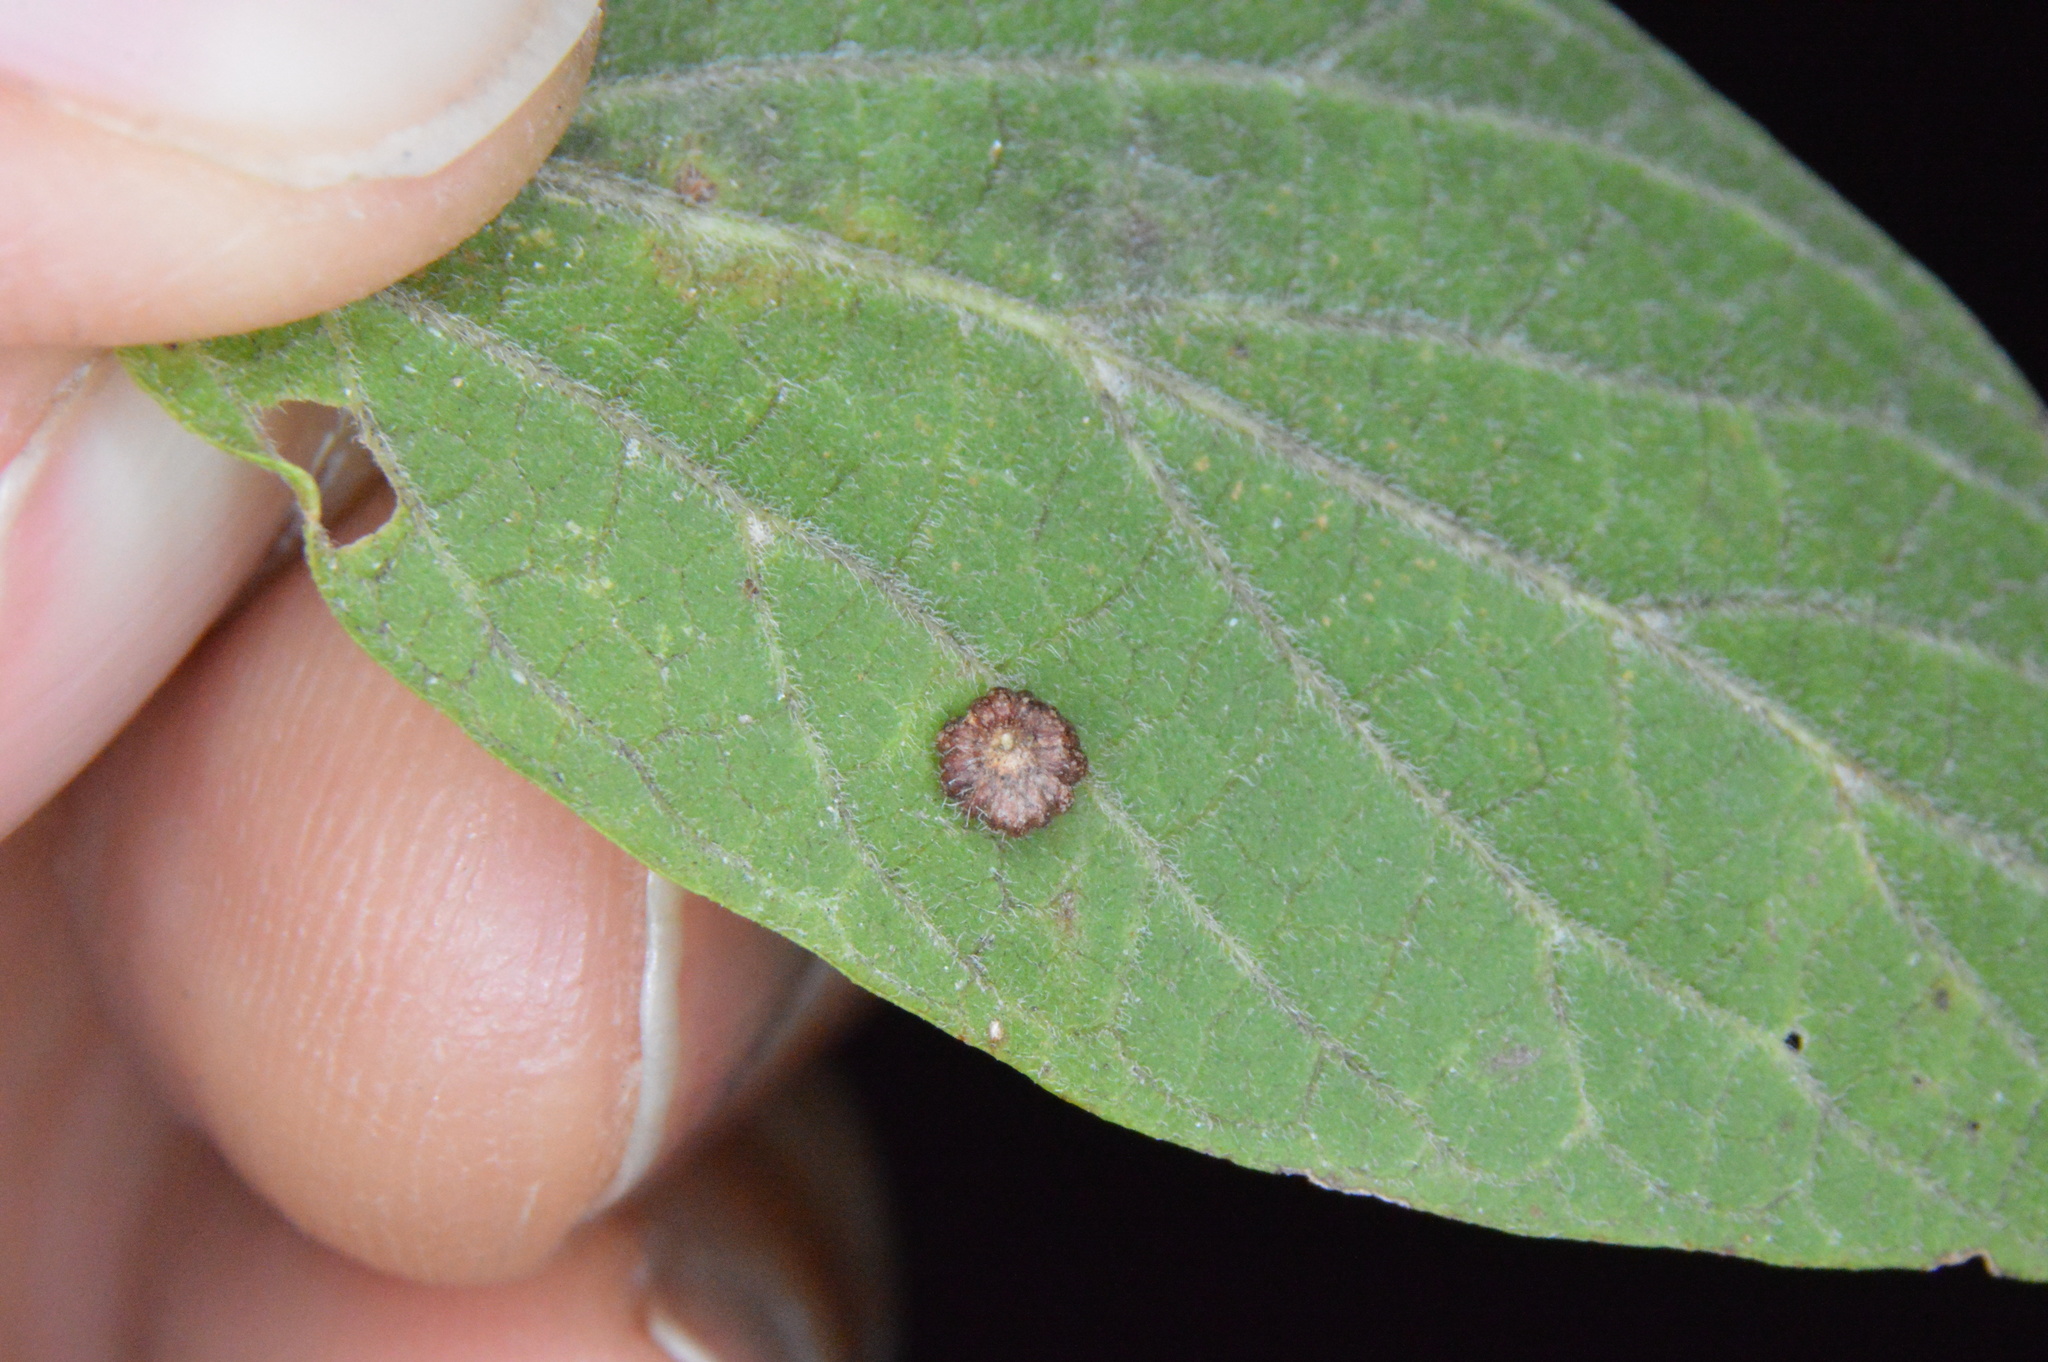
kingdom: Animalia
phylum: Arthropoda
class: Insecta
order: Diptera
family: Cecidomyiidae
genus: Celticecis
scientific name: Celticecis capsularis
